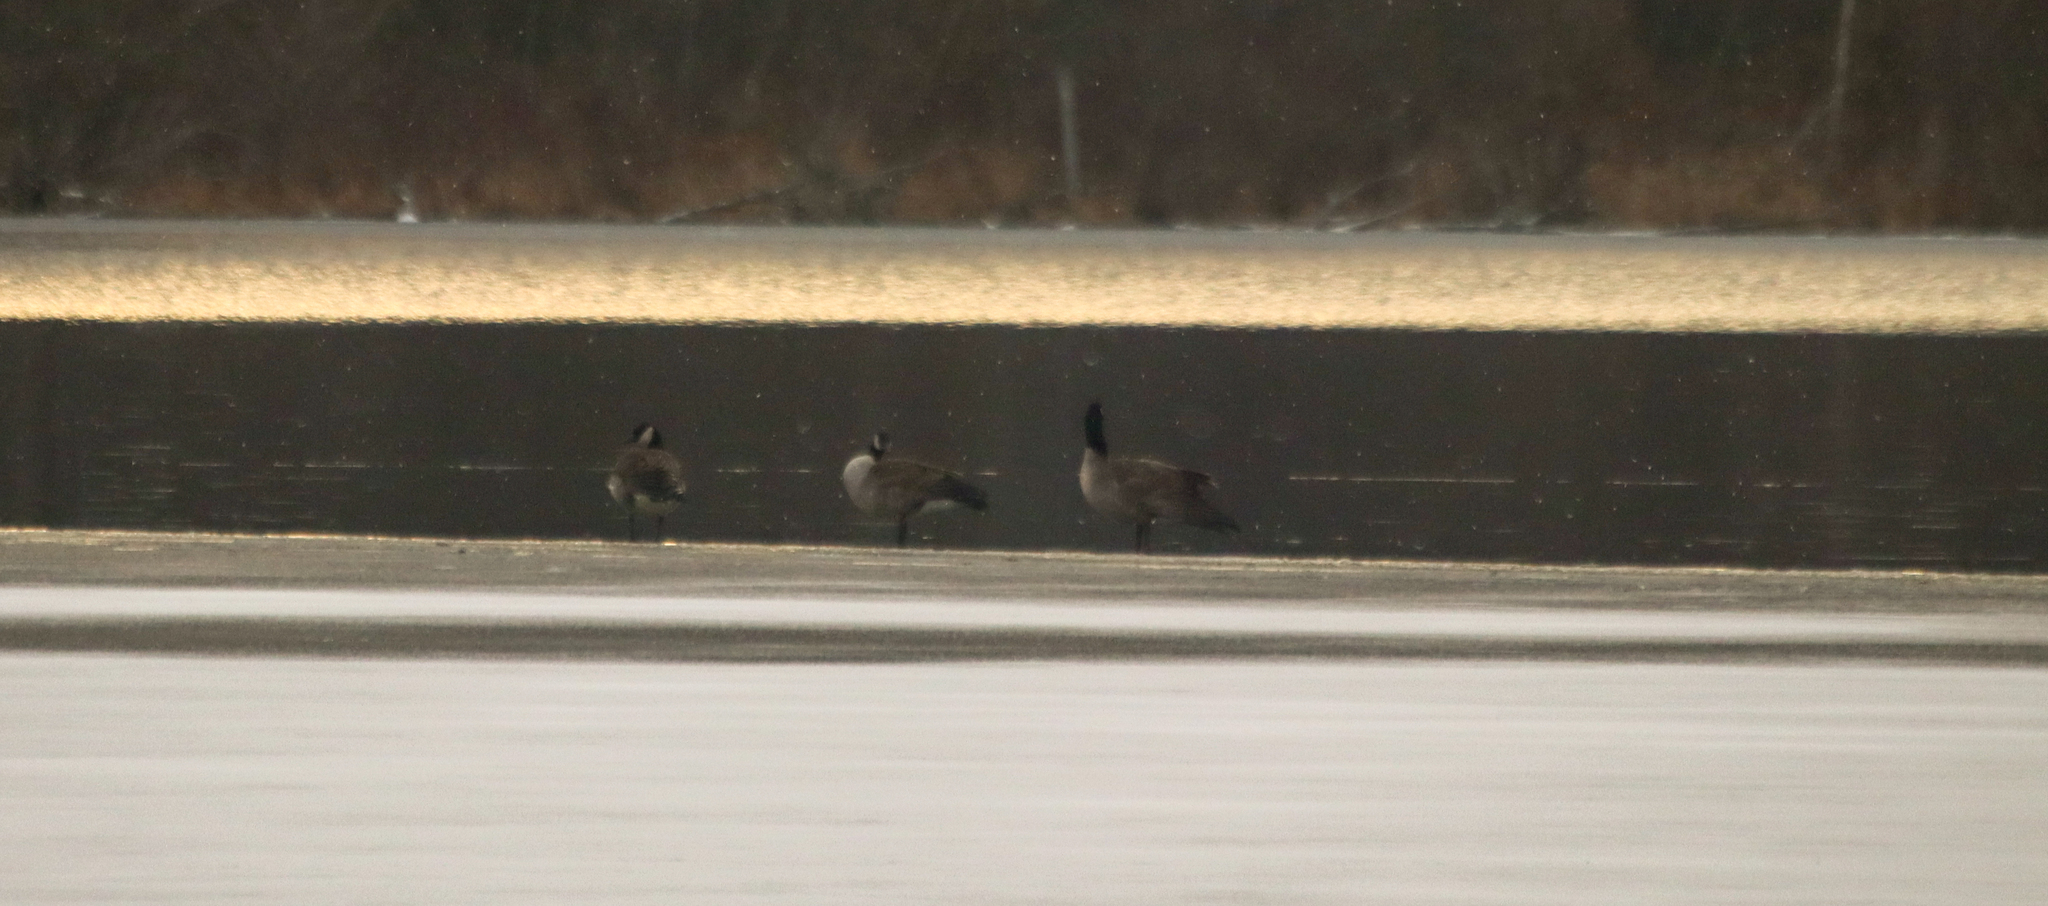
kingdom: Animalia
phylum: Chordata
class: Aves
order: Anseriformes
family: Anatidae
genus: Branta
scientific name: Branta canadensis
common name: Canada goose
